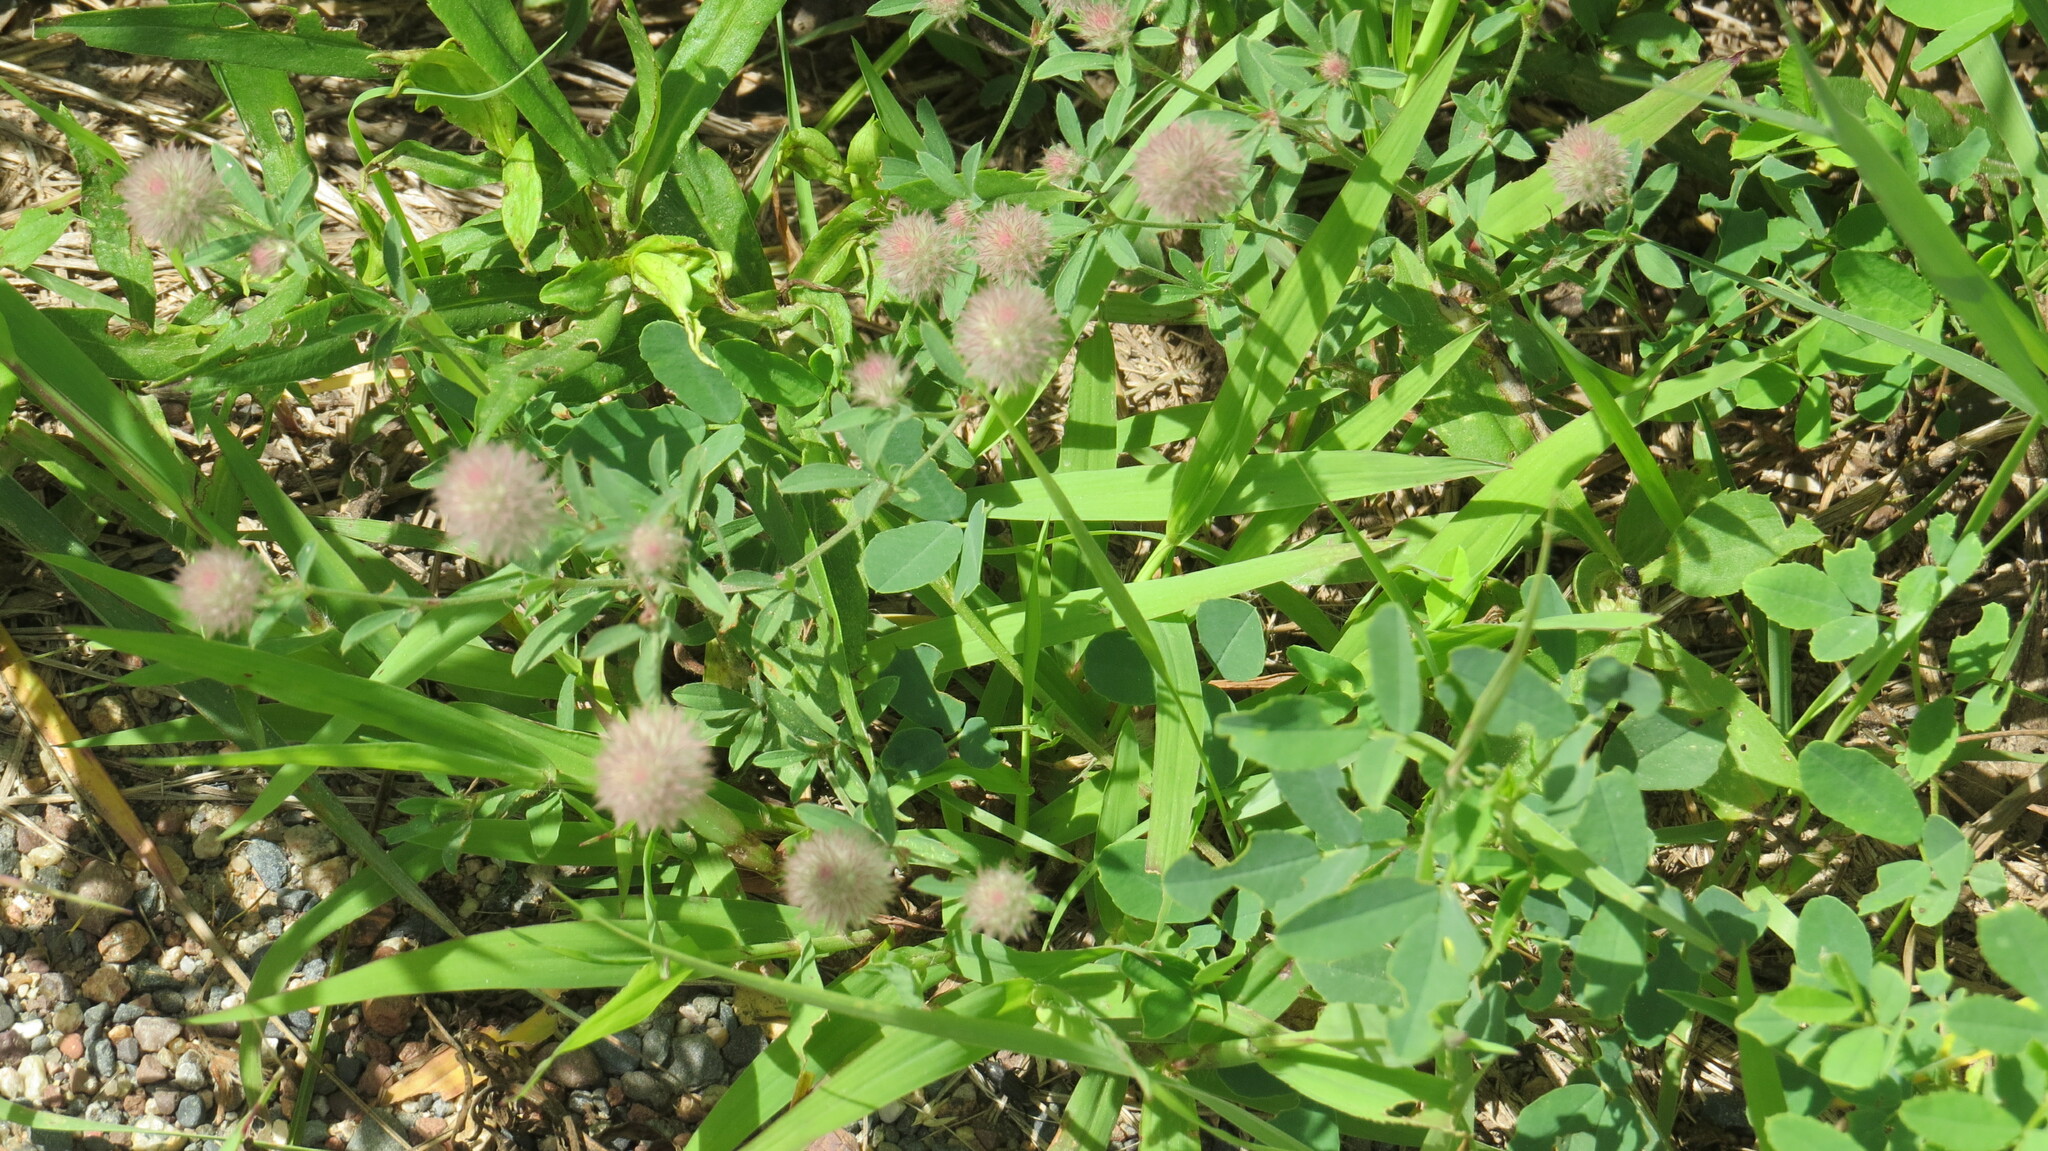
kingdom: Plantae
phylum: Tracheophyta
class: Magnoliopsida
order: Fabales
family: Fabaceae
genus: Trifolium
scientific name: Trifolium arvense
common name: Hare's-foot clover
